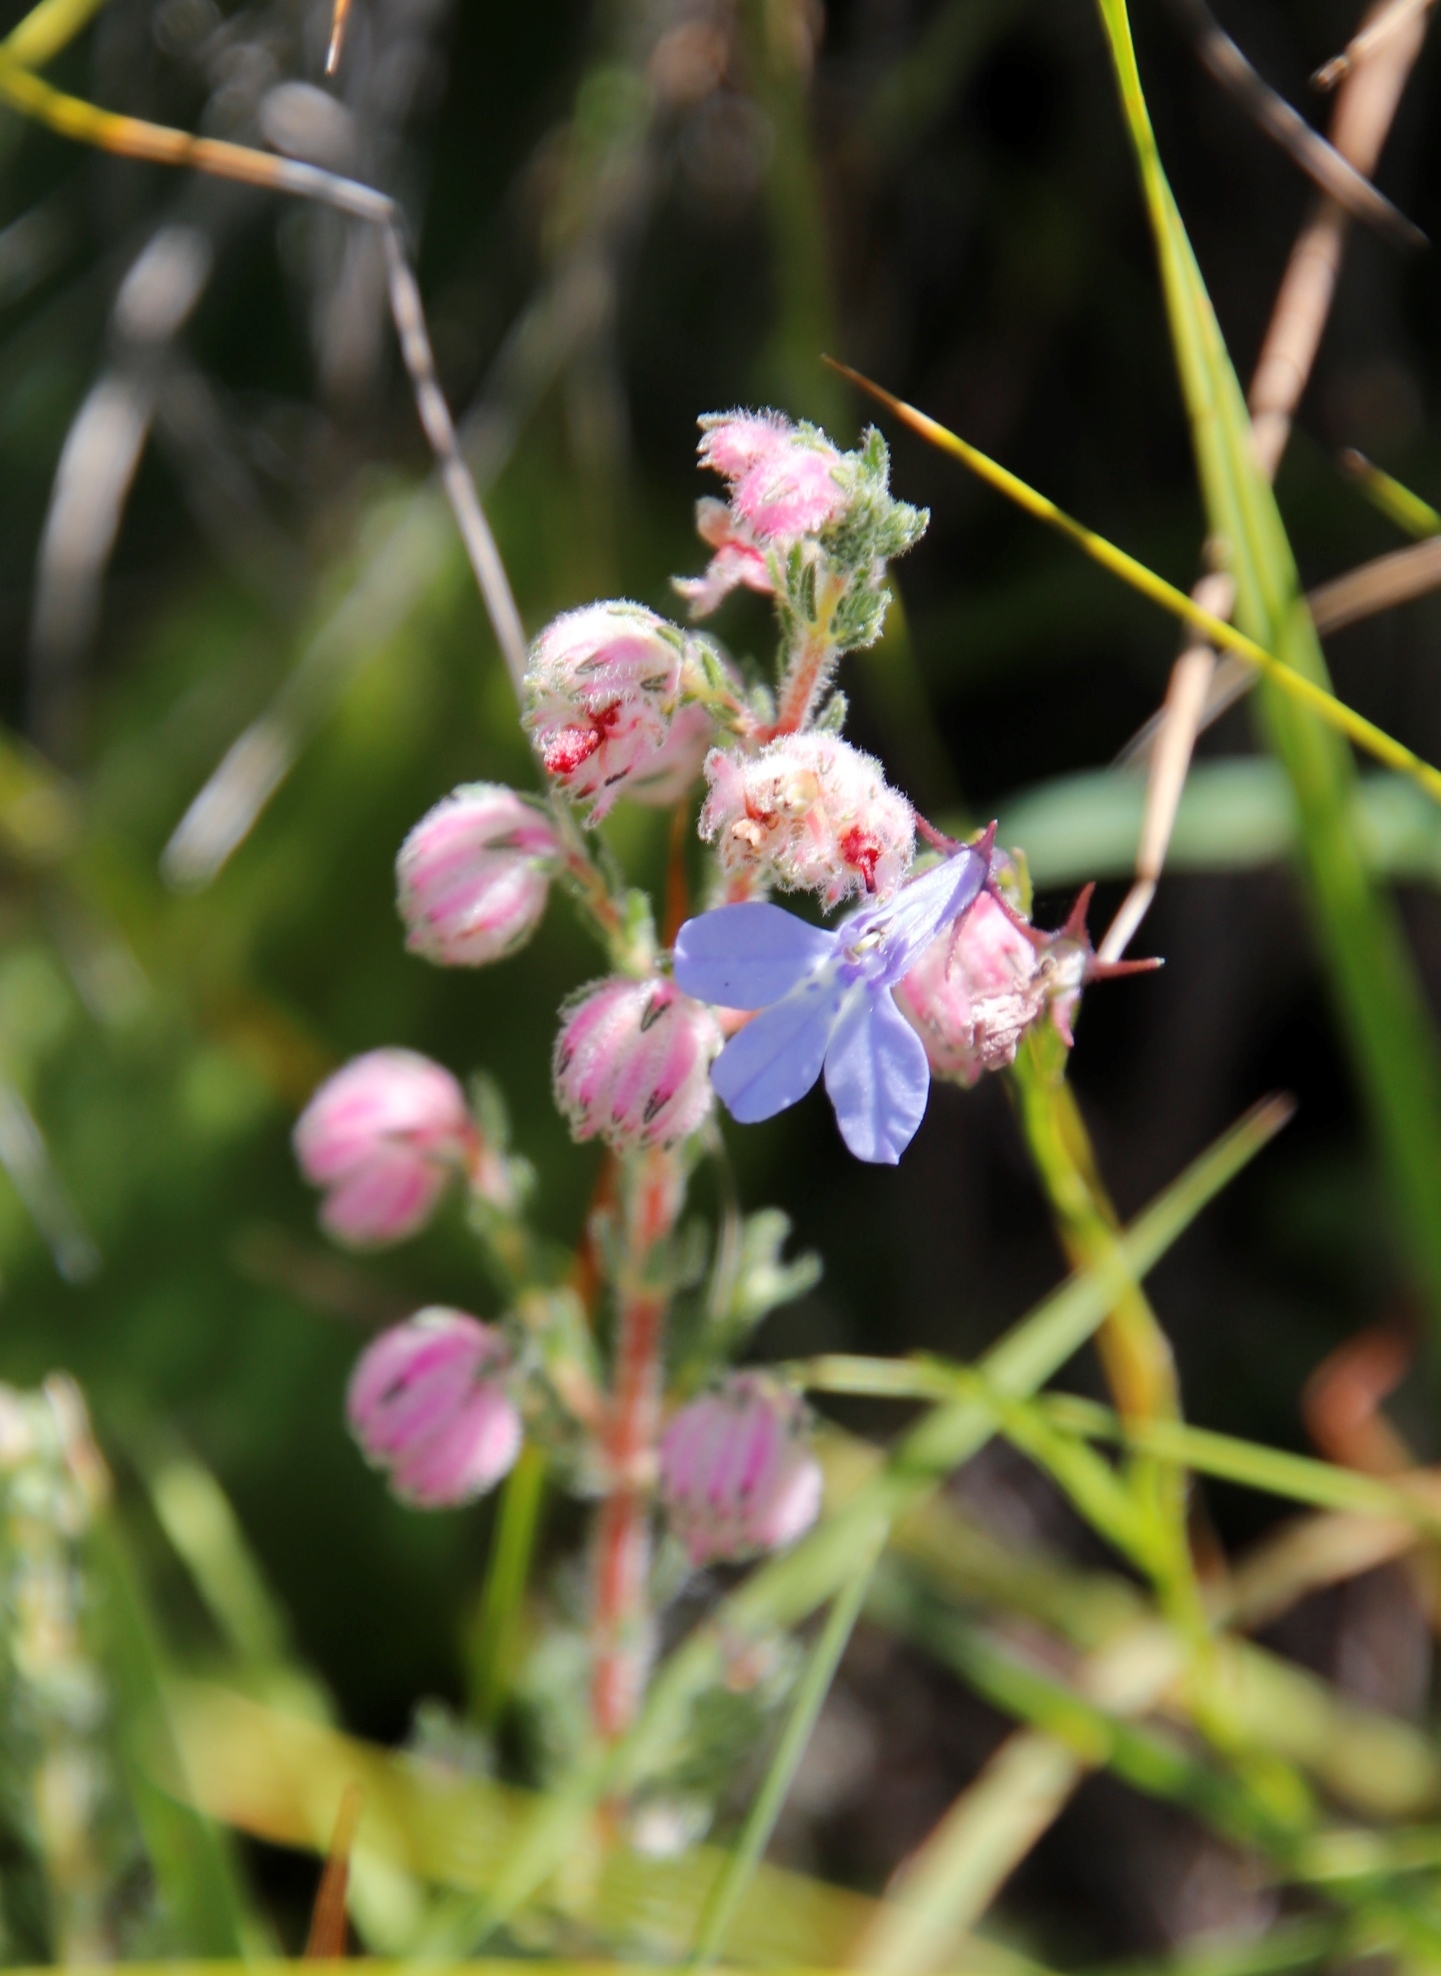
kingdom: Plantae
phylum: Tracheophyta
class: Magnoliopsida
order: Ericales
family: Ericaceae
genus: Erica
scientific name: Erica cooperi
